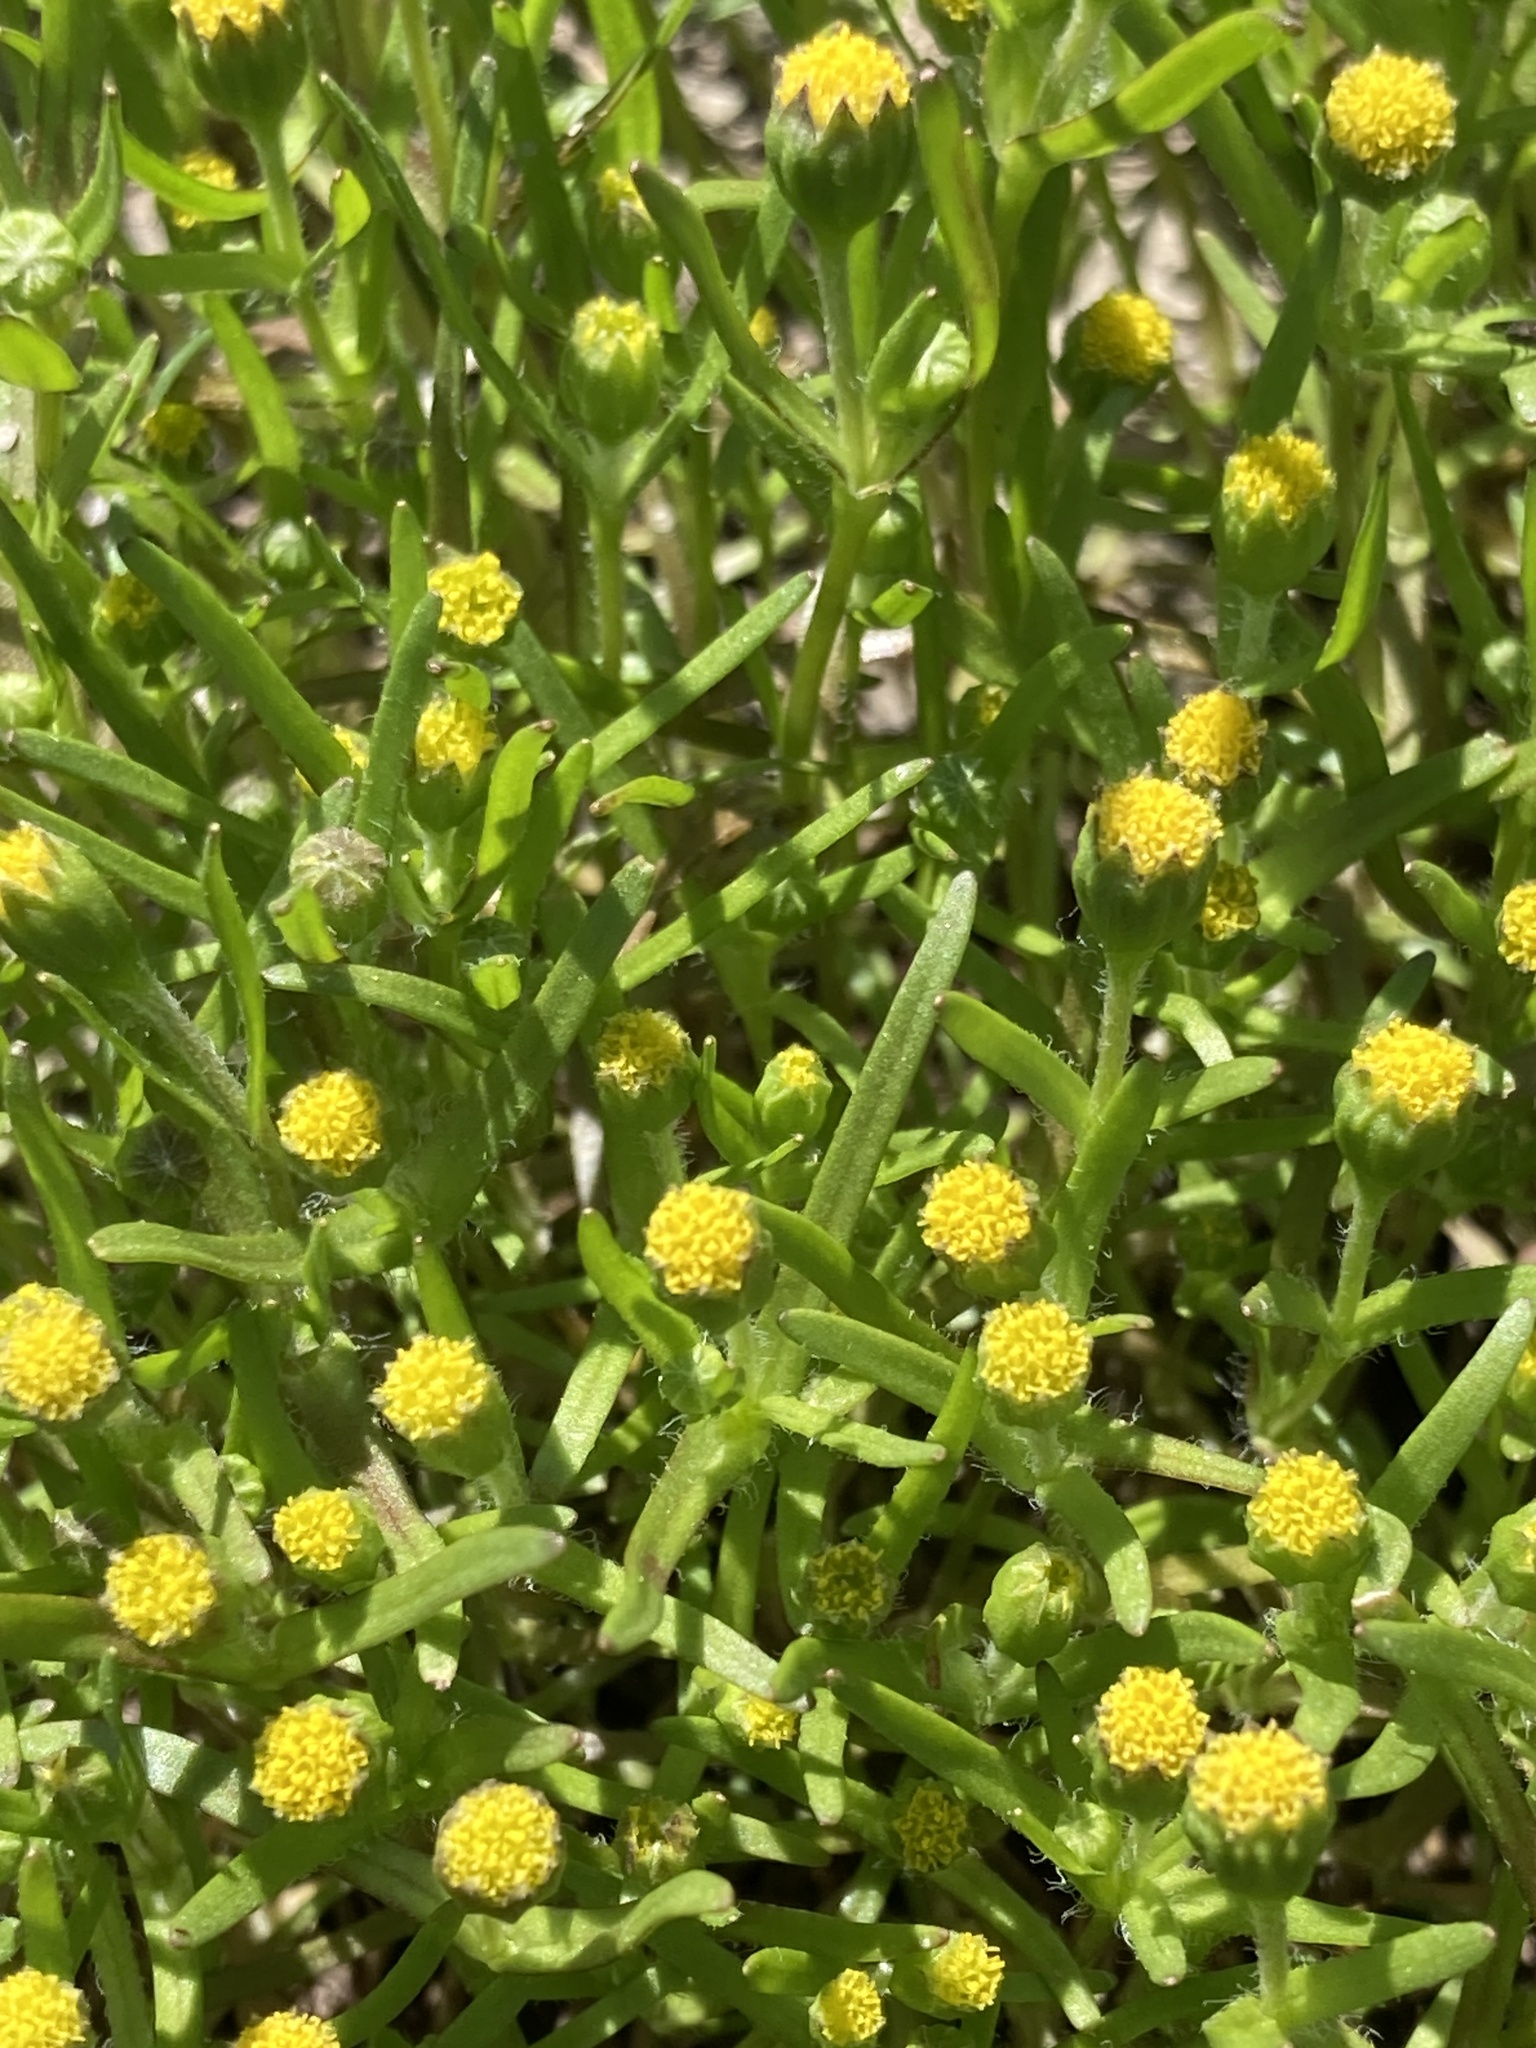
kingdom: Plantae
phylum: Tracheophyta
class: Magnoliopsida
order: Asterales
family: Asteraceae
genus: Lasthenia
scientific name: Lasthenia glaberrima
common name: Smooth goldfields
